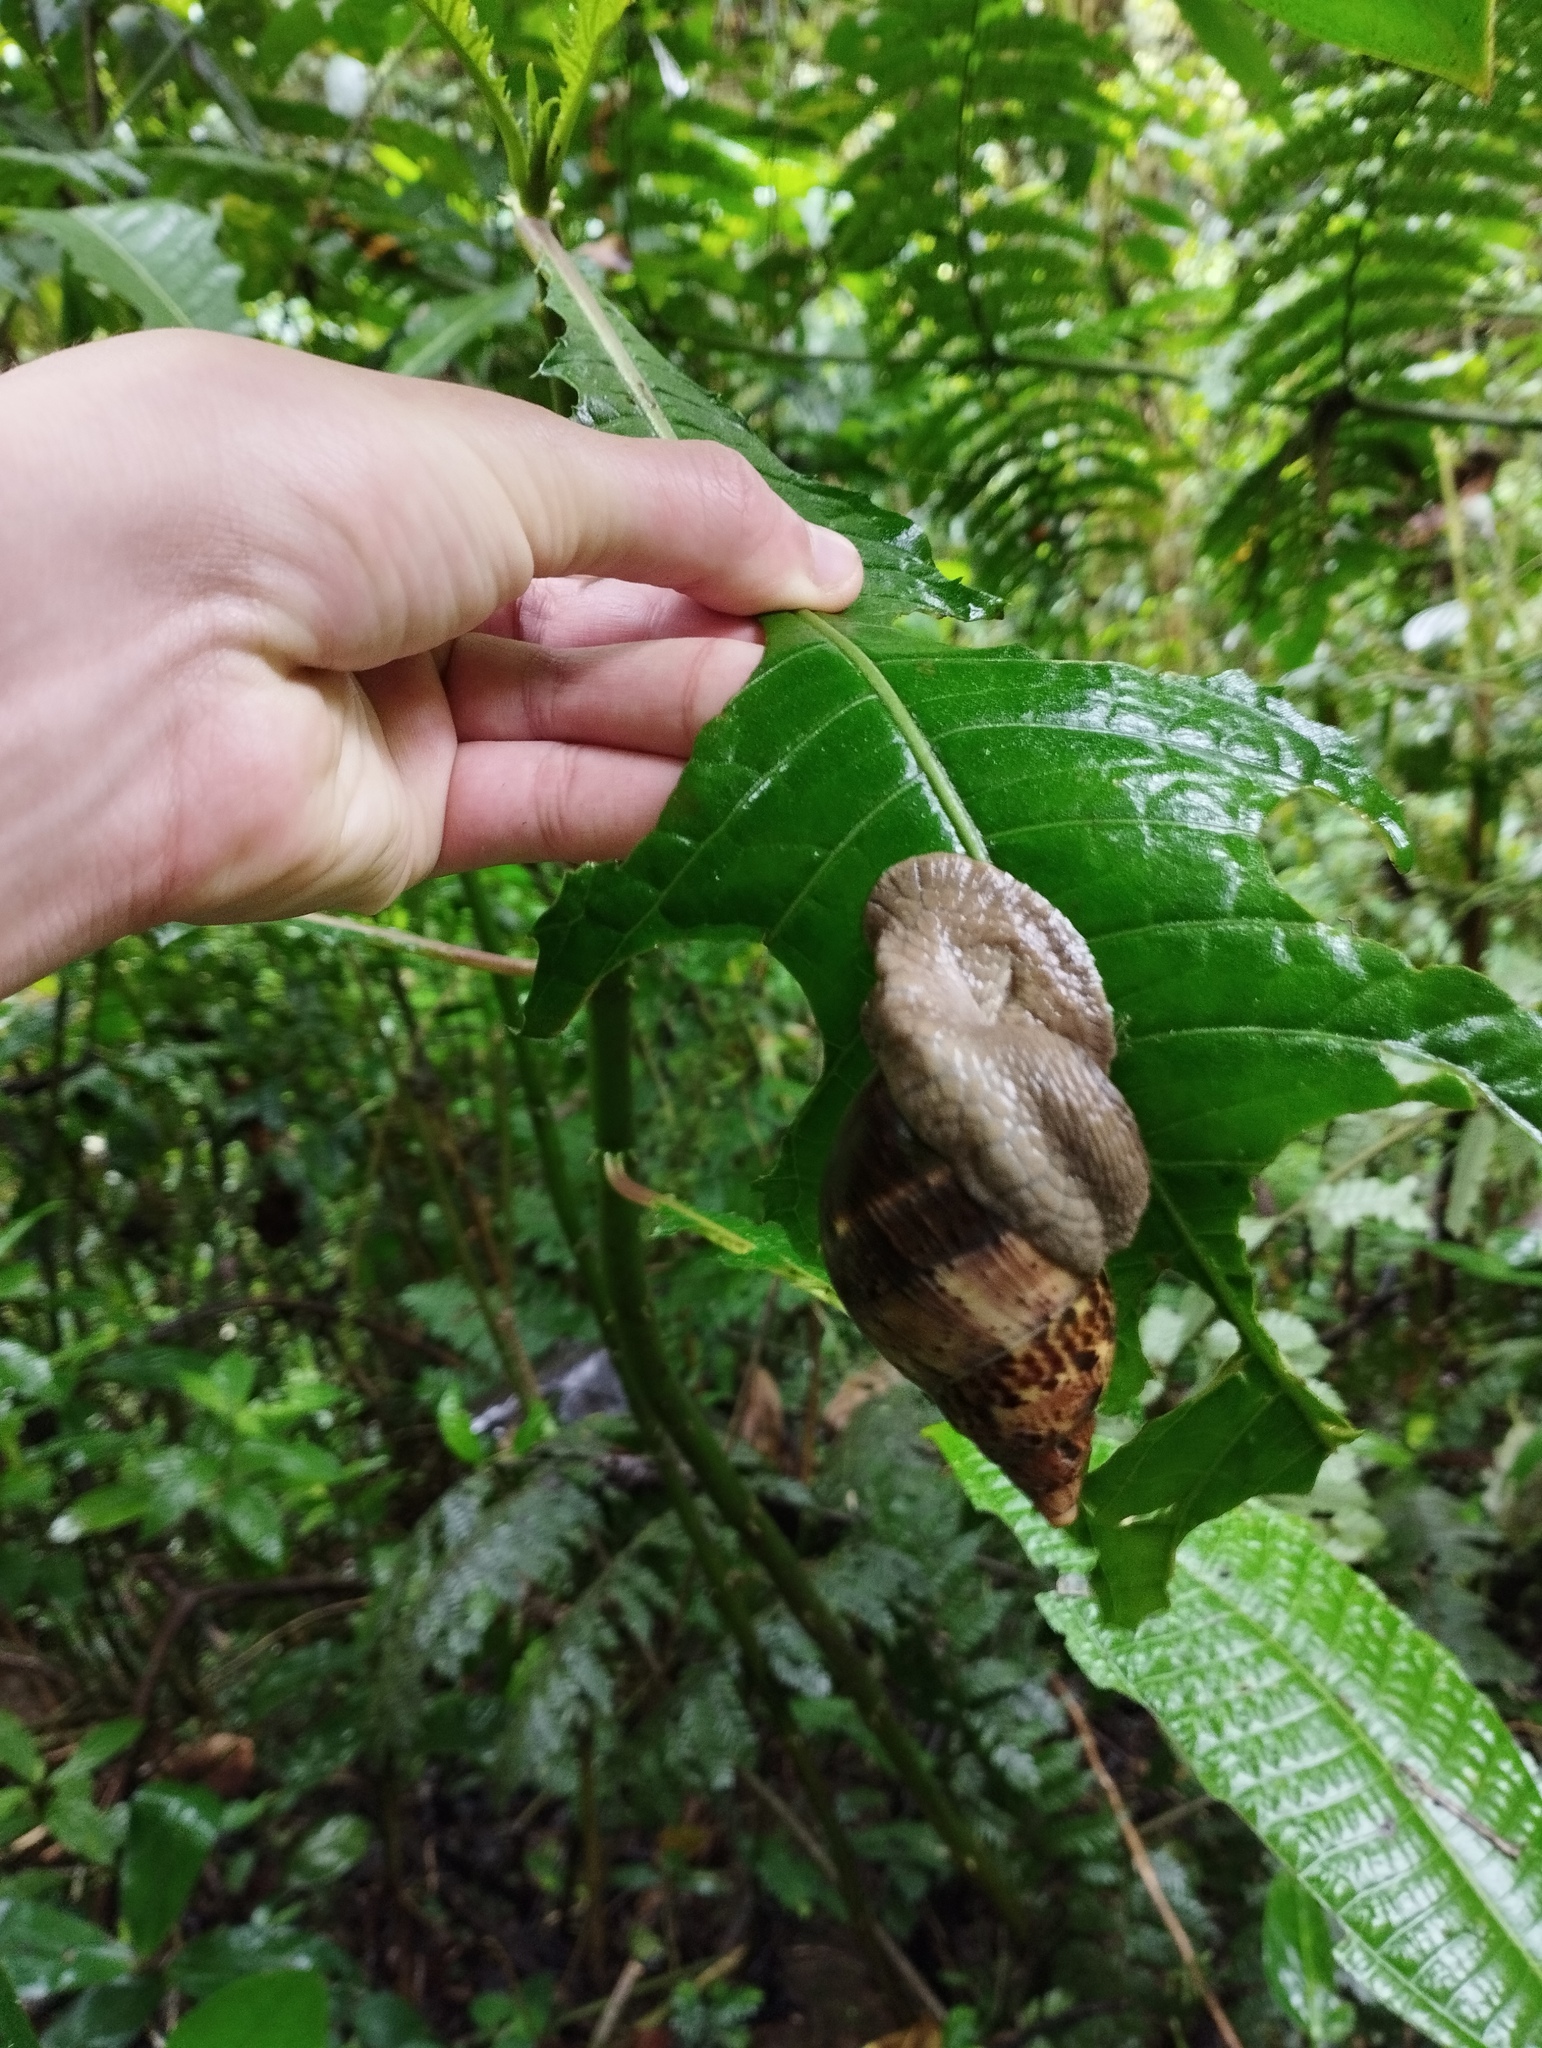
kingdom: Animalia
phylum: Mollusca
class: Gastropoda
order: Stylommatophora
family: Orthalicidae
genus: Hemibulimus
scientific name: Hemibulimus dennisoni
